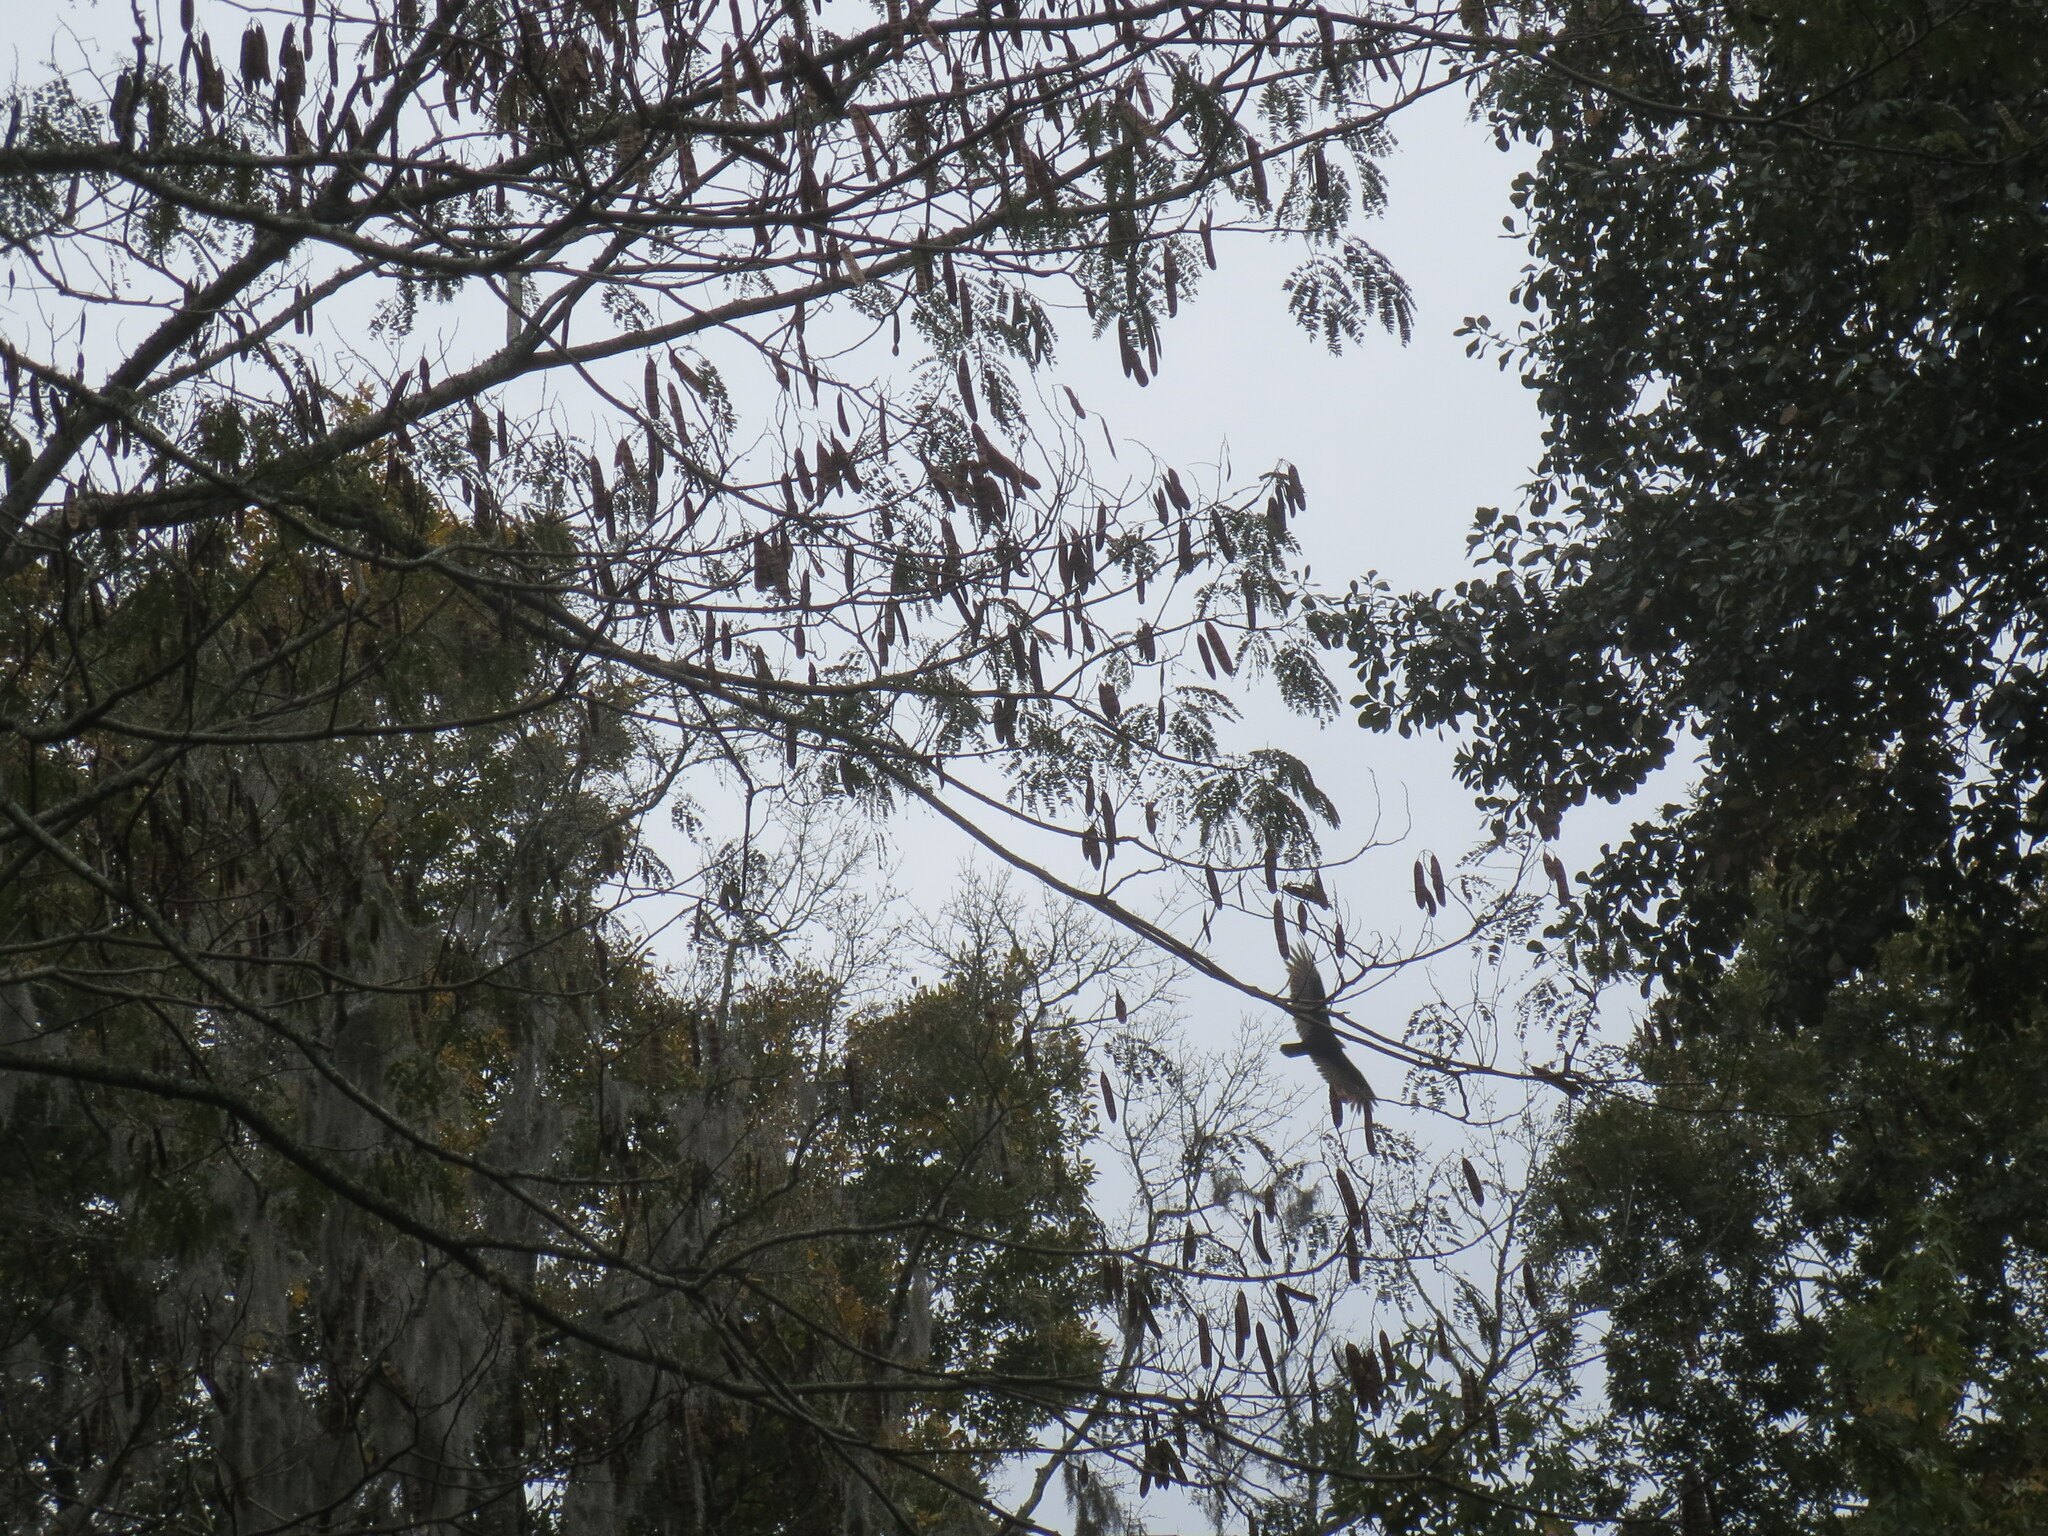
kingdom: Animalia
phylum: Chordata
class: Aves
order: Accipitriformes
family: Cathartidae
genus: Cathartes
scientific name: Cathartes aura
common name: Turkey vulture
